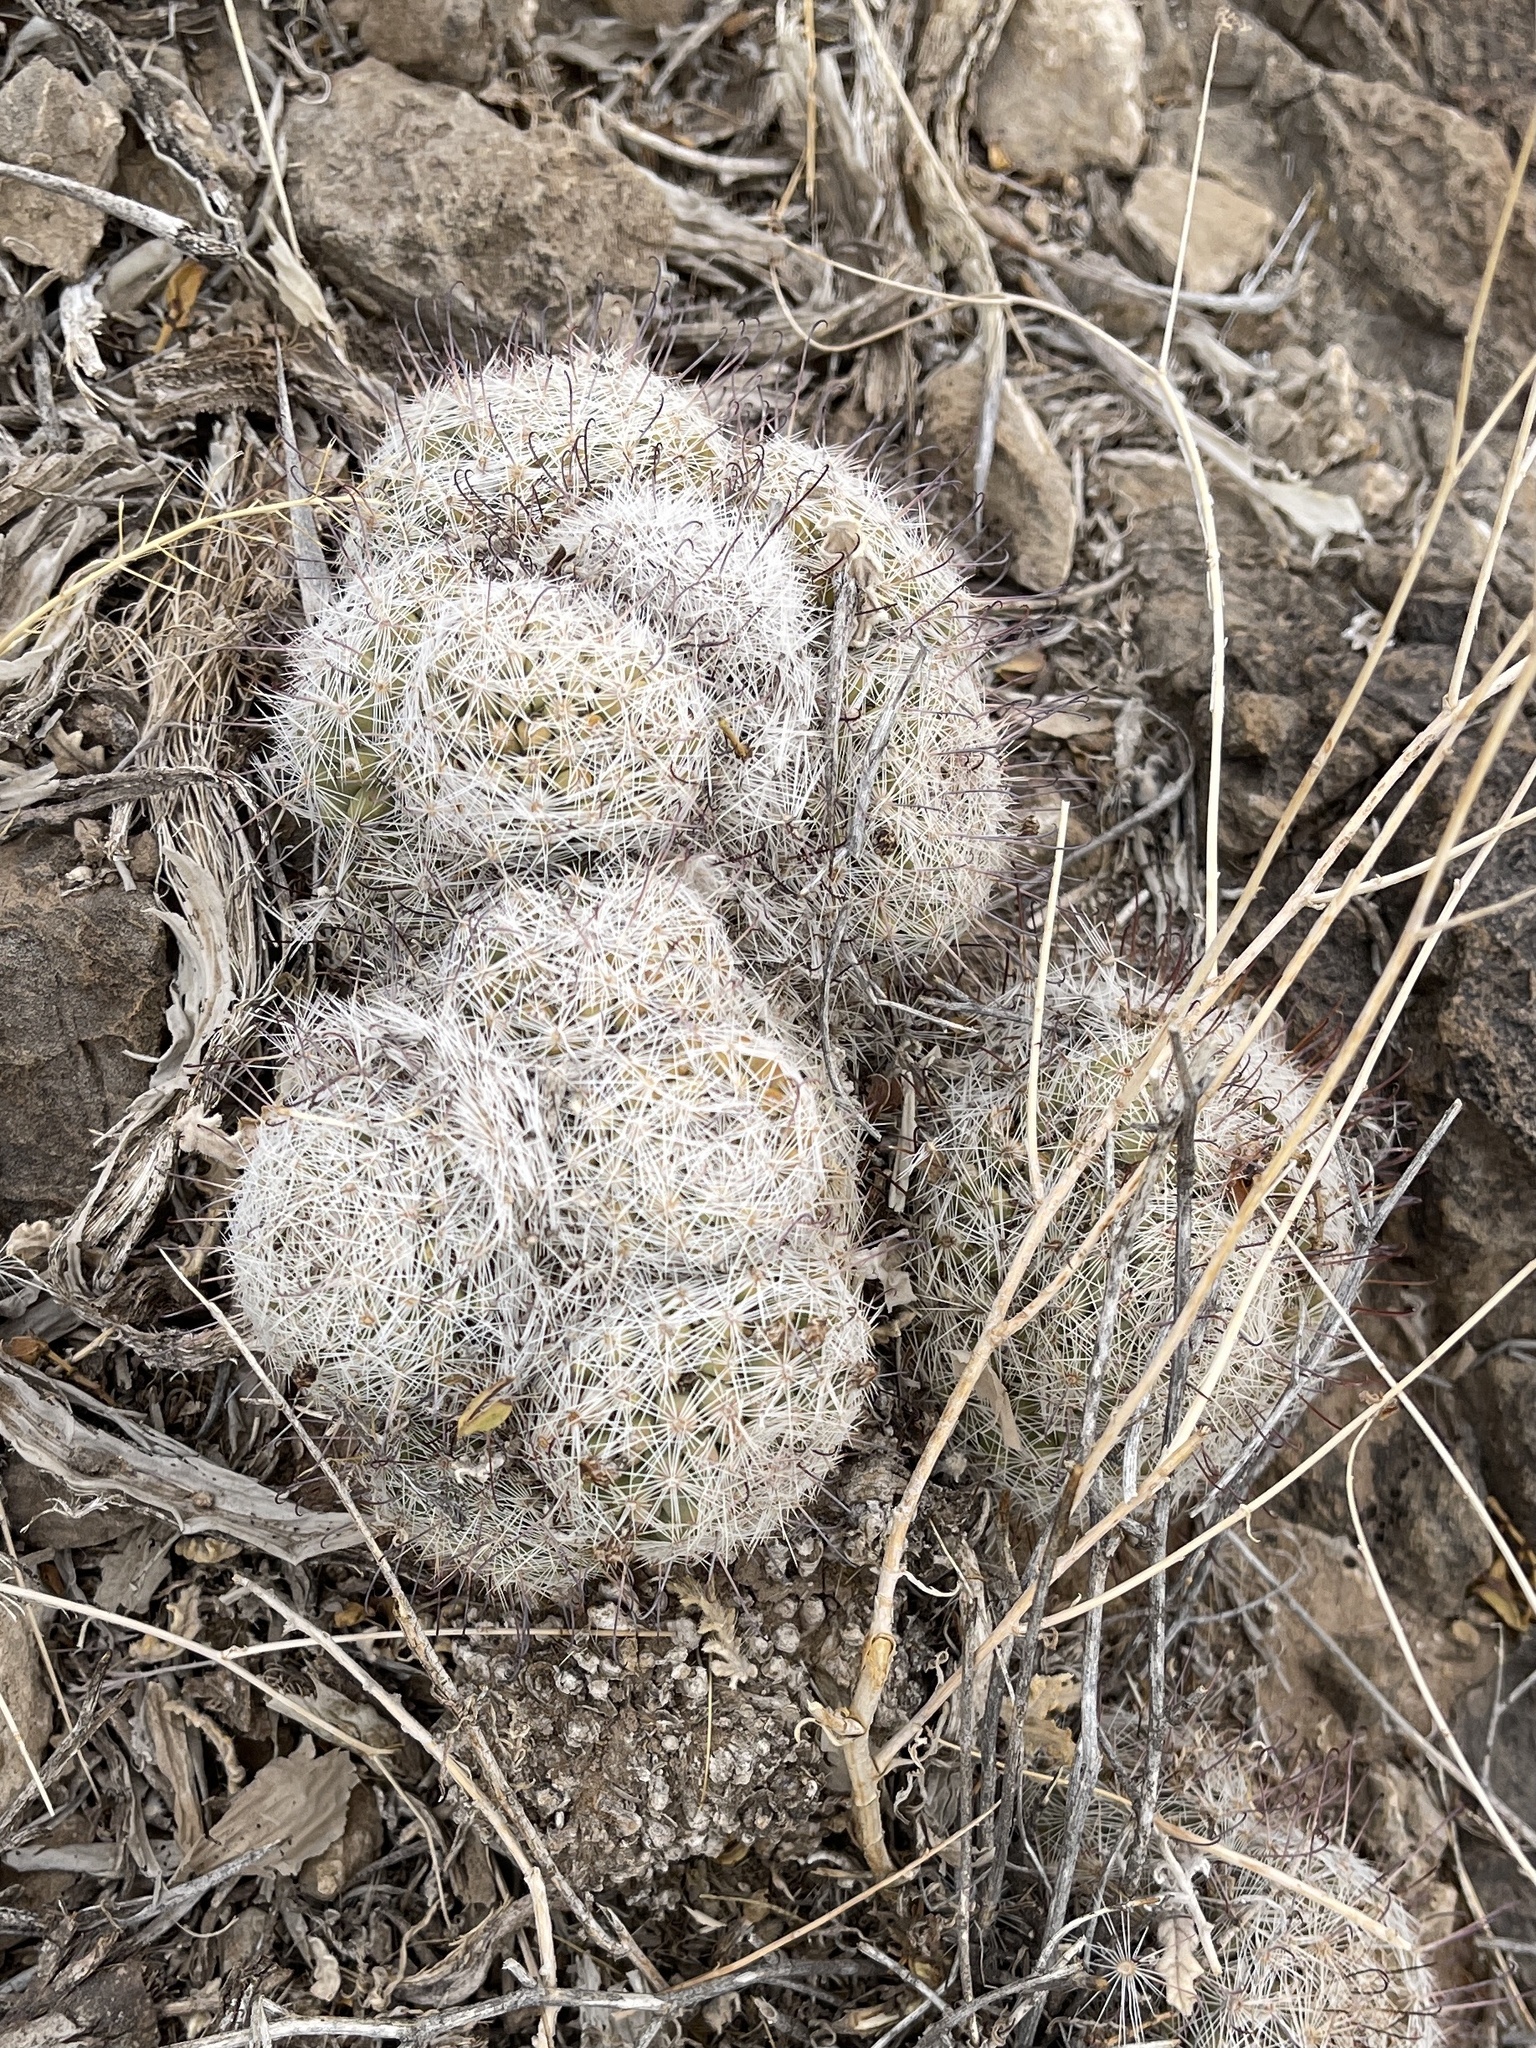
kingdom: Plantae
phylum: Tracheophyta
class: Magnoliopsida
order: Caryophyllales
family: Cactaceae
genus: Cochemiea
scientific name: Cochemiea grahamii
